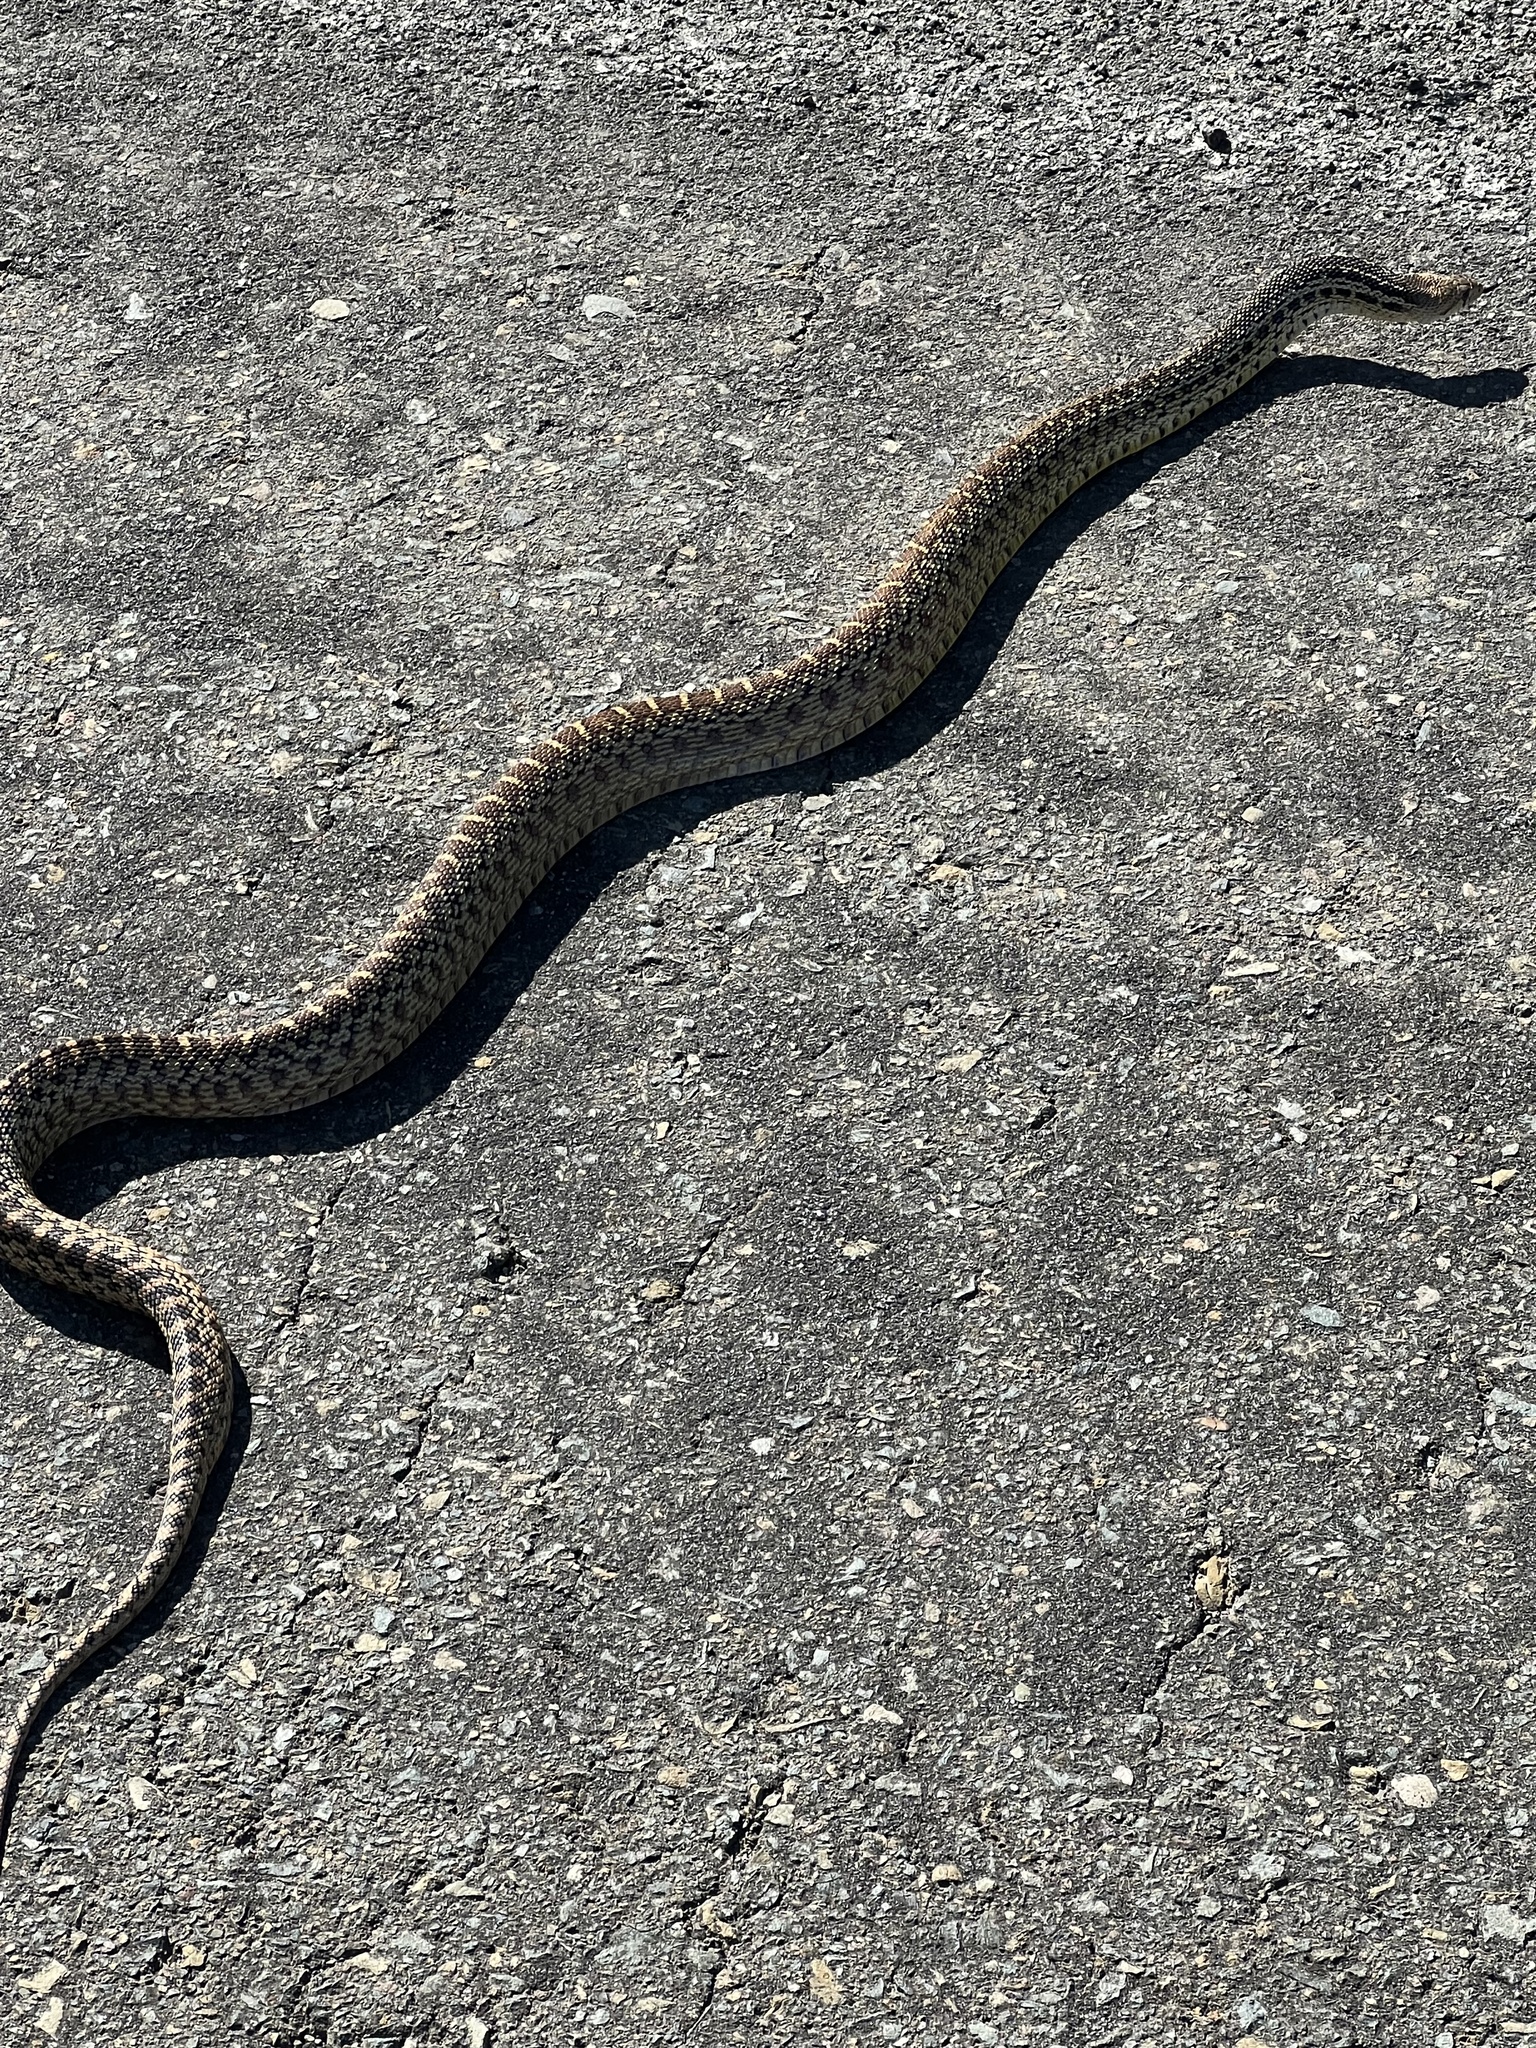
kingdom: Animalia
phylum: Chordata
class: Squamata
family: Colubridae
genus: Pituophis
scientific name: Pituophis catenifer
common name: Gopher snake
